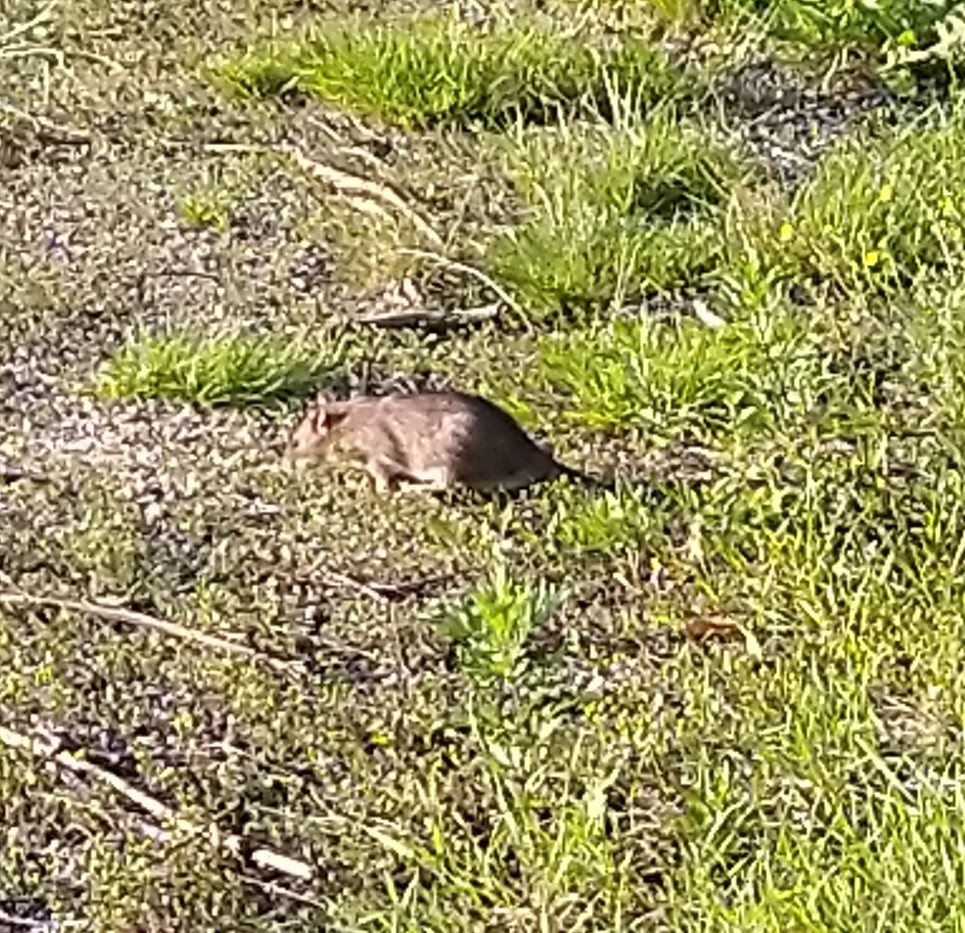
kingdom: Animalia
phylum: Chordata
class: Mammalia
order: Rodentia
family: Muridae
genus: Rattus
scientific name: Rattus norvegicus
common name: Brown rat
